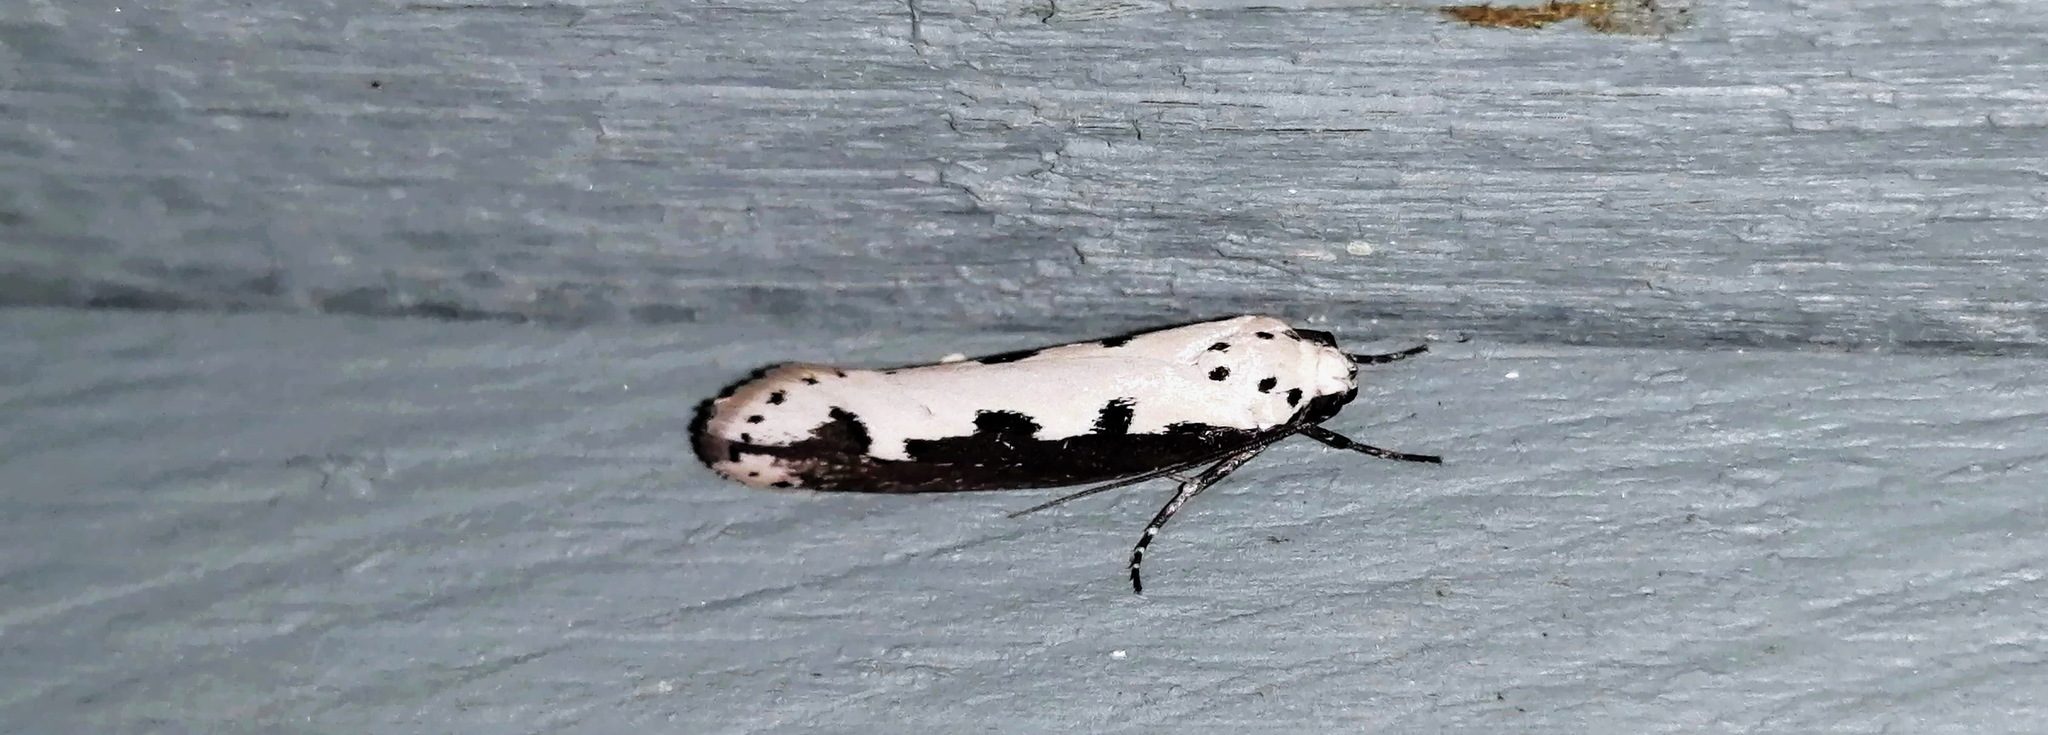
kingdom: Animalia
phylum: Arthropoda
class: Insecta
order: Lepidoptera
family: Ethmiidae
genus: Ethmia
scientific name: Ethmia bipunctella
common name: Bordered ermel
